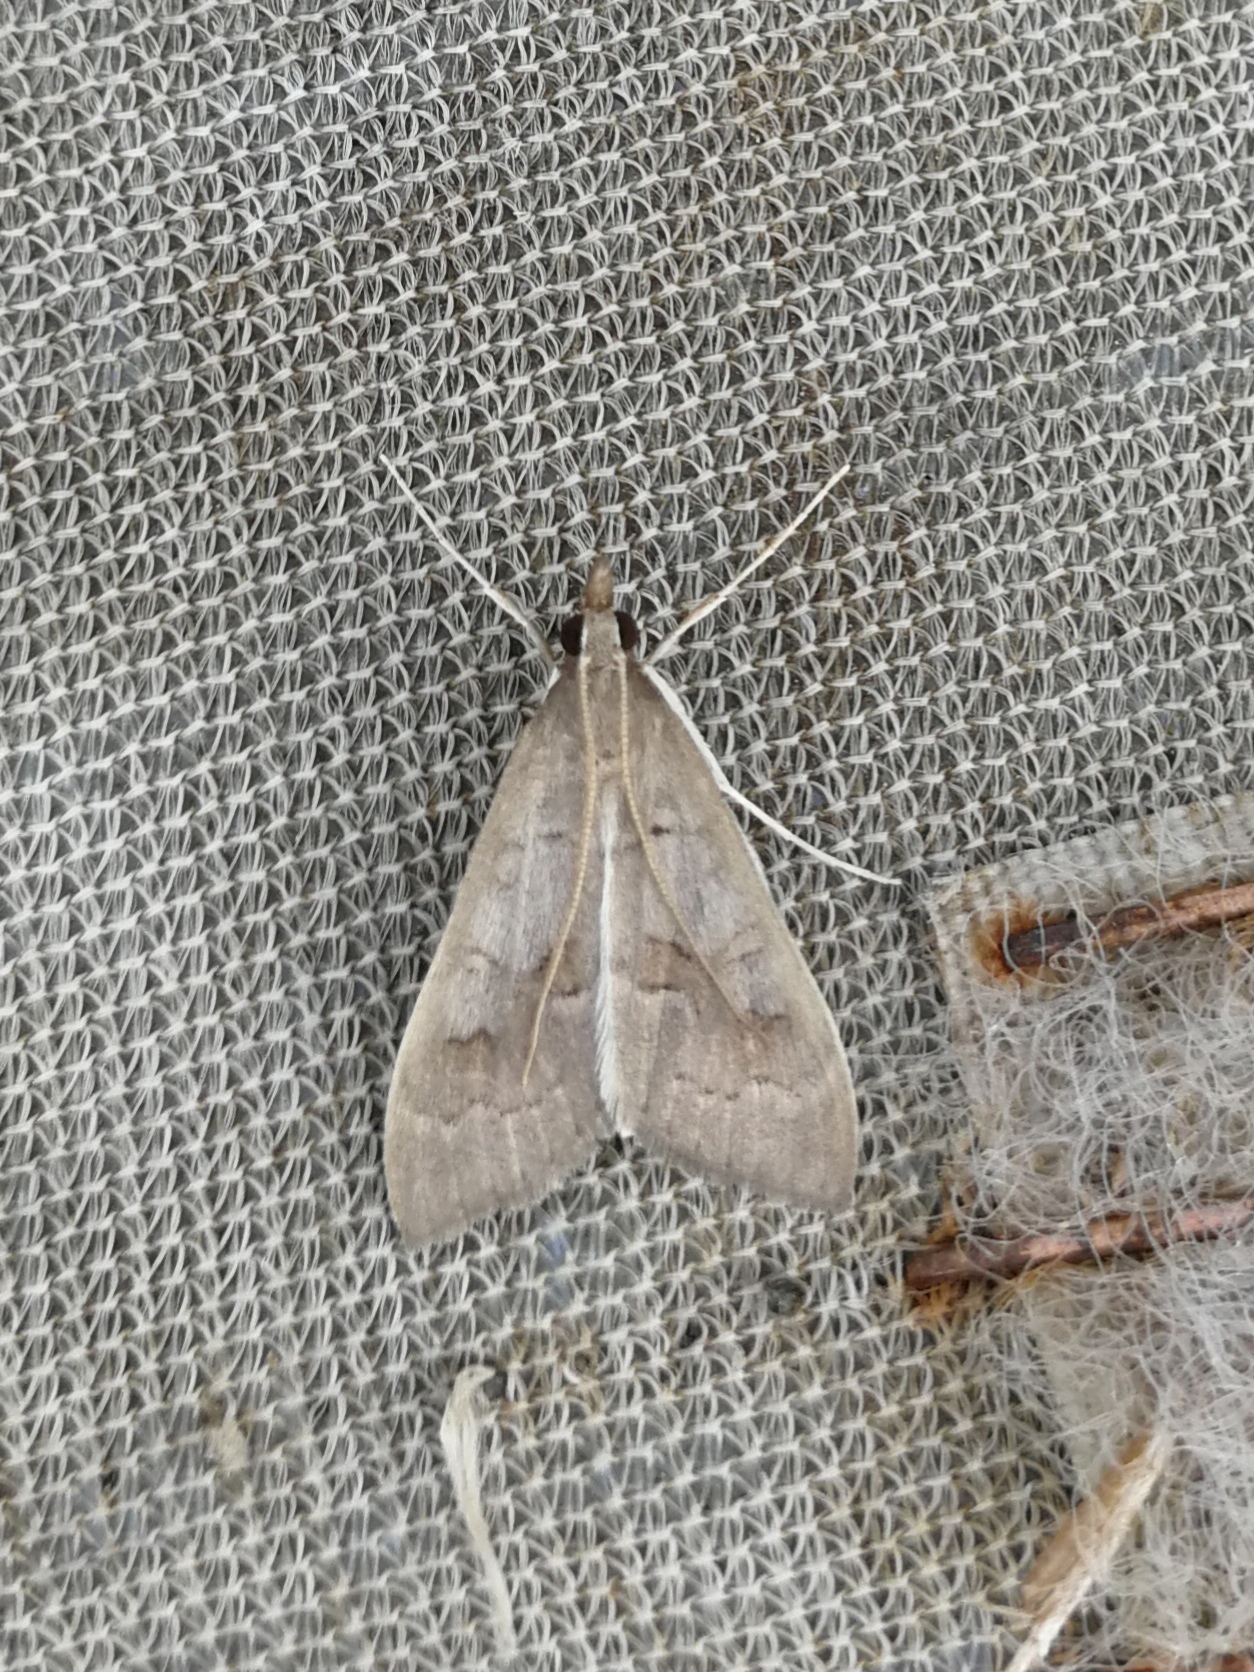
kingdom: Animalia
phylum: Arthropoda
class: Insecta
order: Lepidoptera
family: Crambidae
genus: Mecyna
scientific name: Mecyna asinalis
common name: Coastal pearl
